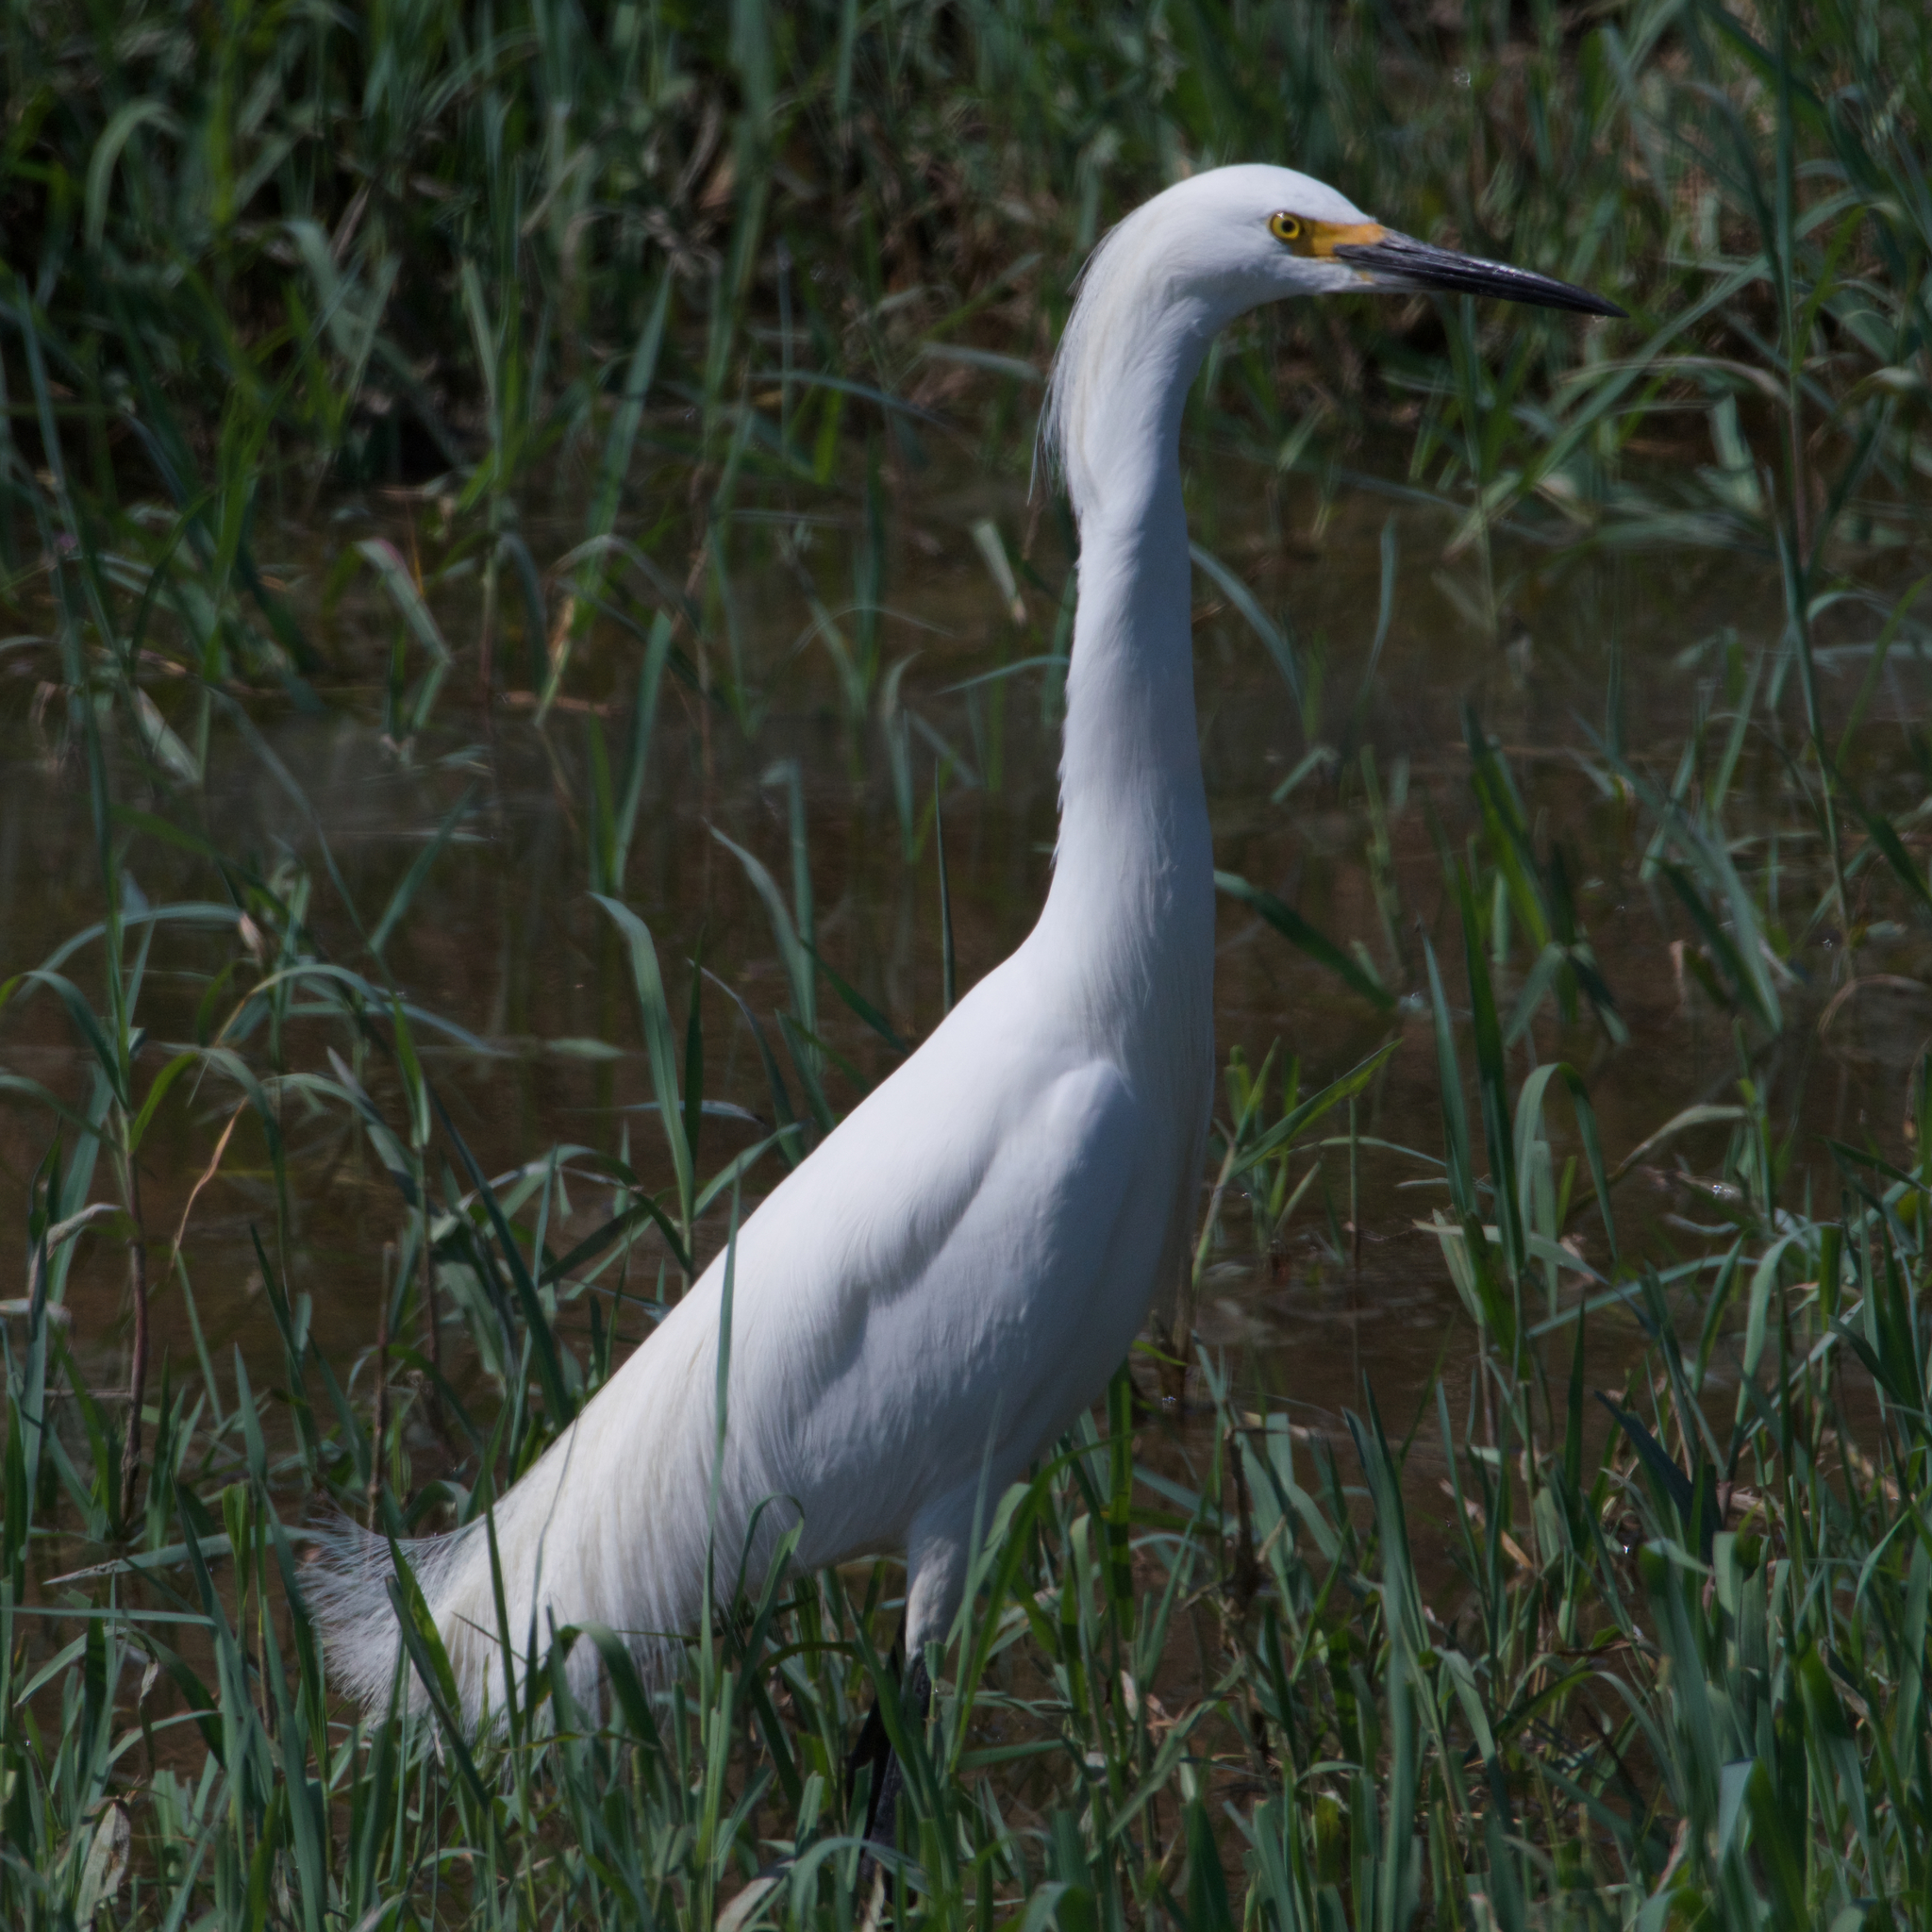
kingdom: Animalia
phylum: Chordata
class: Aves
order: Pelecaniformes
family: Ardeidae
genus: Egretta
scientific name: Egretta thula
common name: Snowy egret
